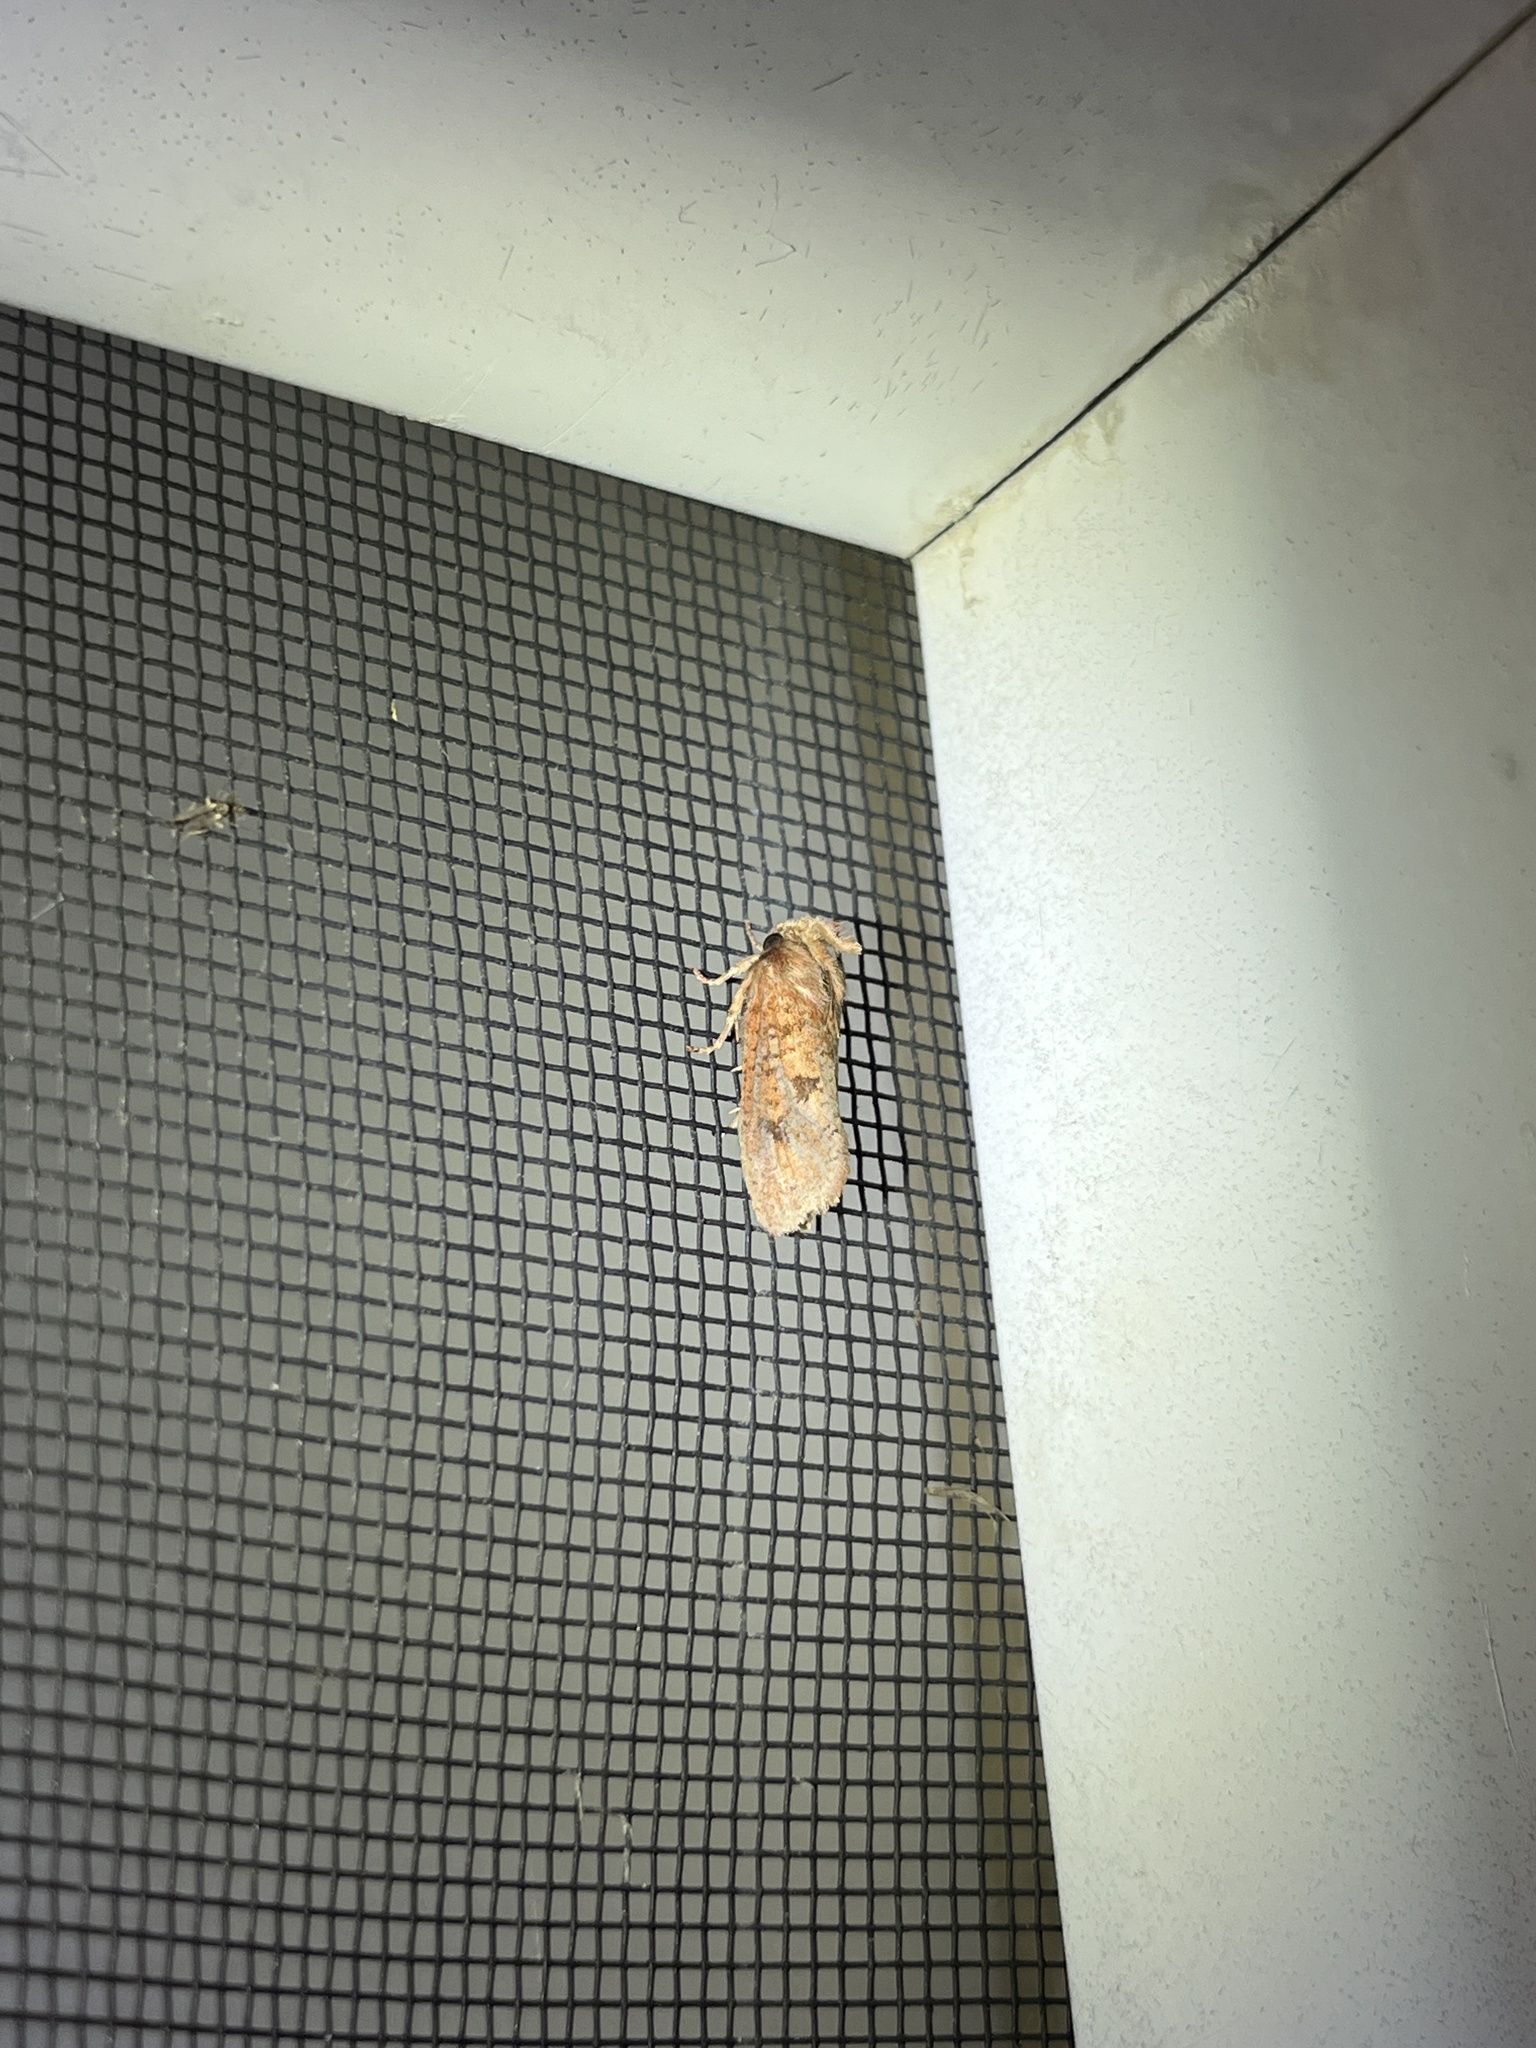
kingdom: Animalia
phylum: Arthropoda
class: Insecta
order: Lepidoptera
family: Tineidae
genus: Acrolophus
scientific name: Acrolophus plumifrontella
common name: Eastern grass tubeworm moth
